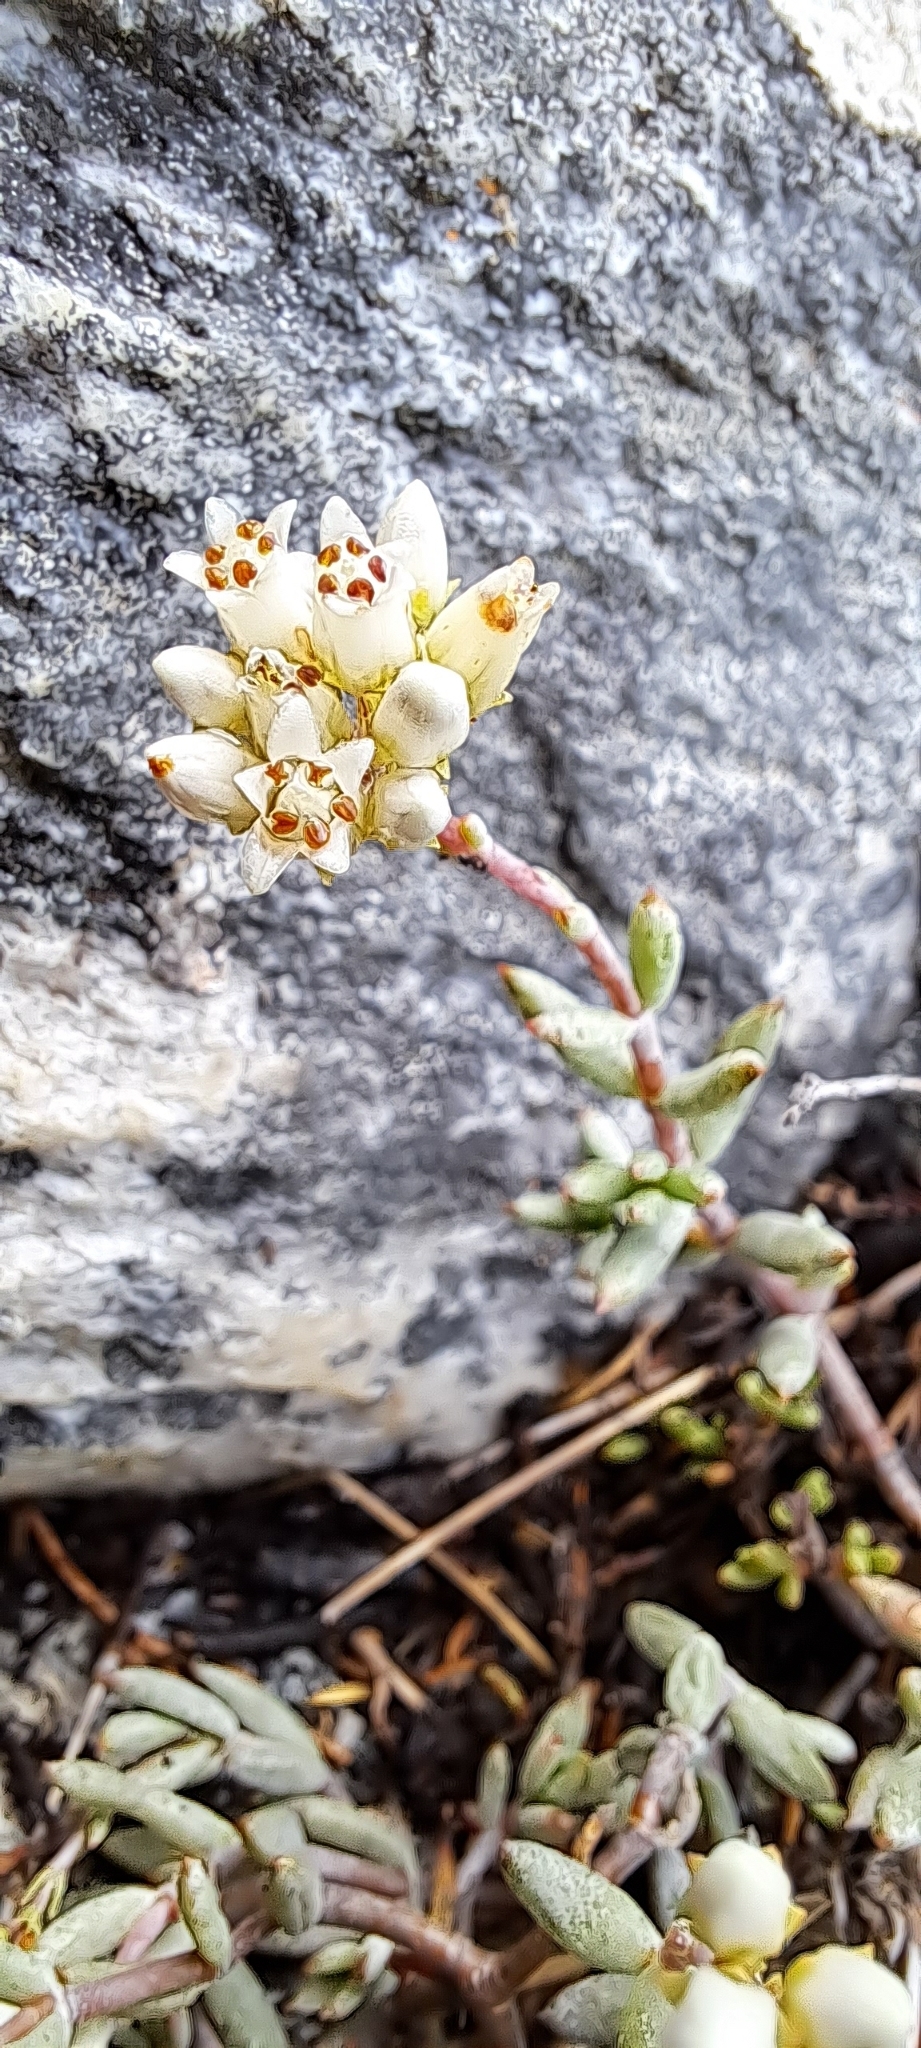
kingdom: Plantae
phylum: Tracheophyta
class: Magnoliopsida
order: Saxifragales
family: Crassulaceae
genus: Crassula
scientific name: Crassula biplanata
